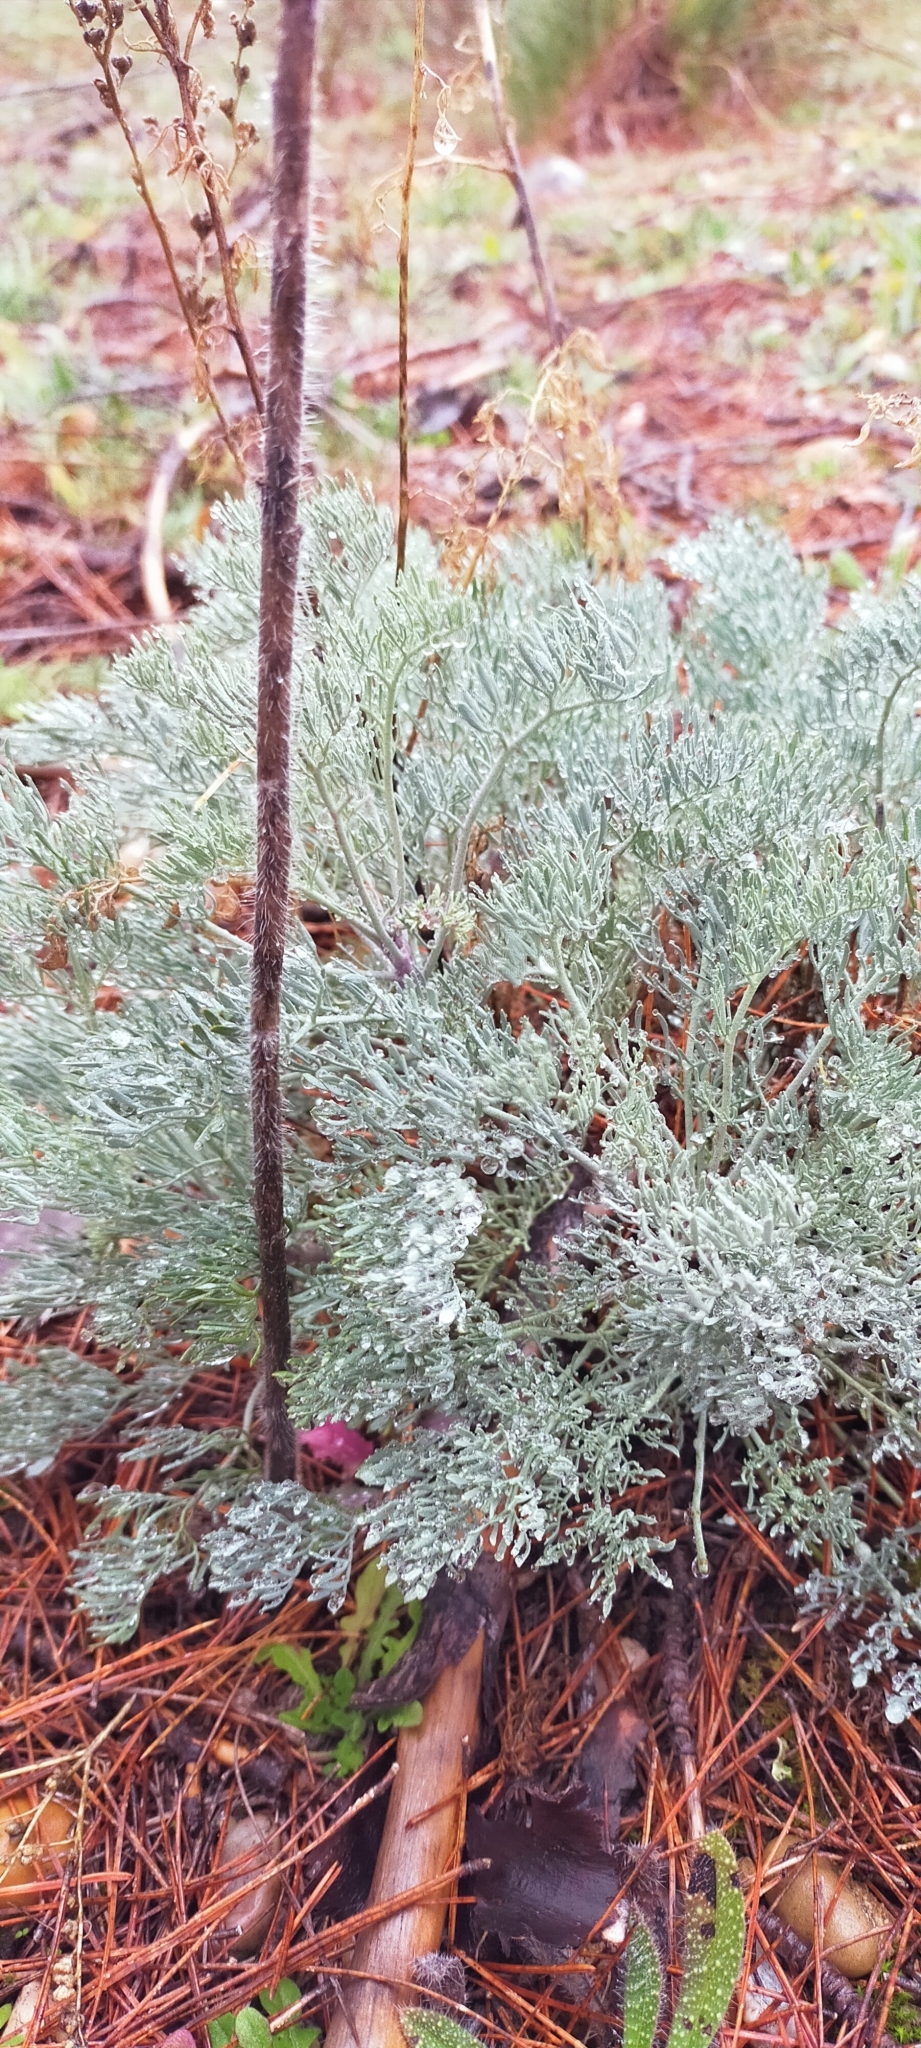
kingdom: Plantae
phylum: Tracheophyta
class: Magnoliopsida
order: Sapindales
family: Rutaceae
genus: Ruta
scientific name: Ruta montana
